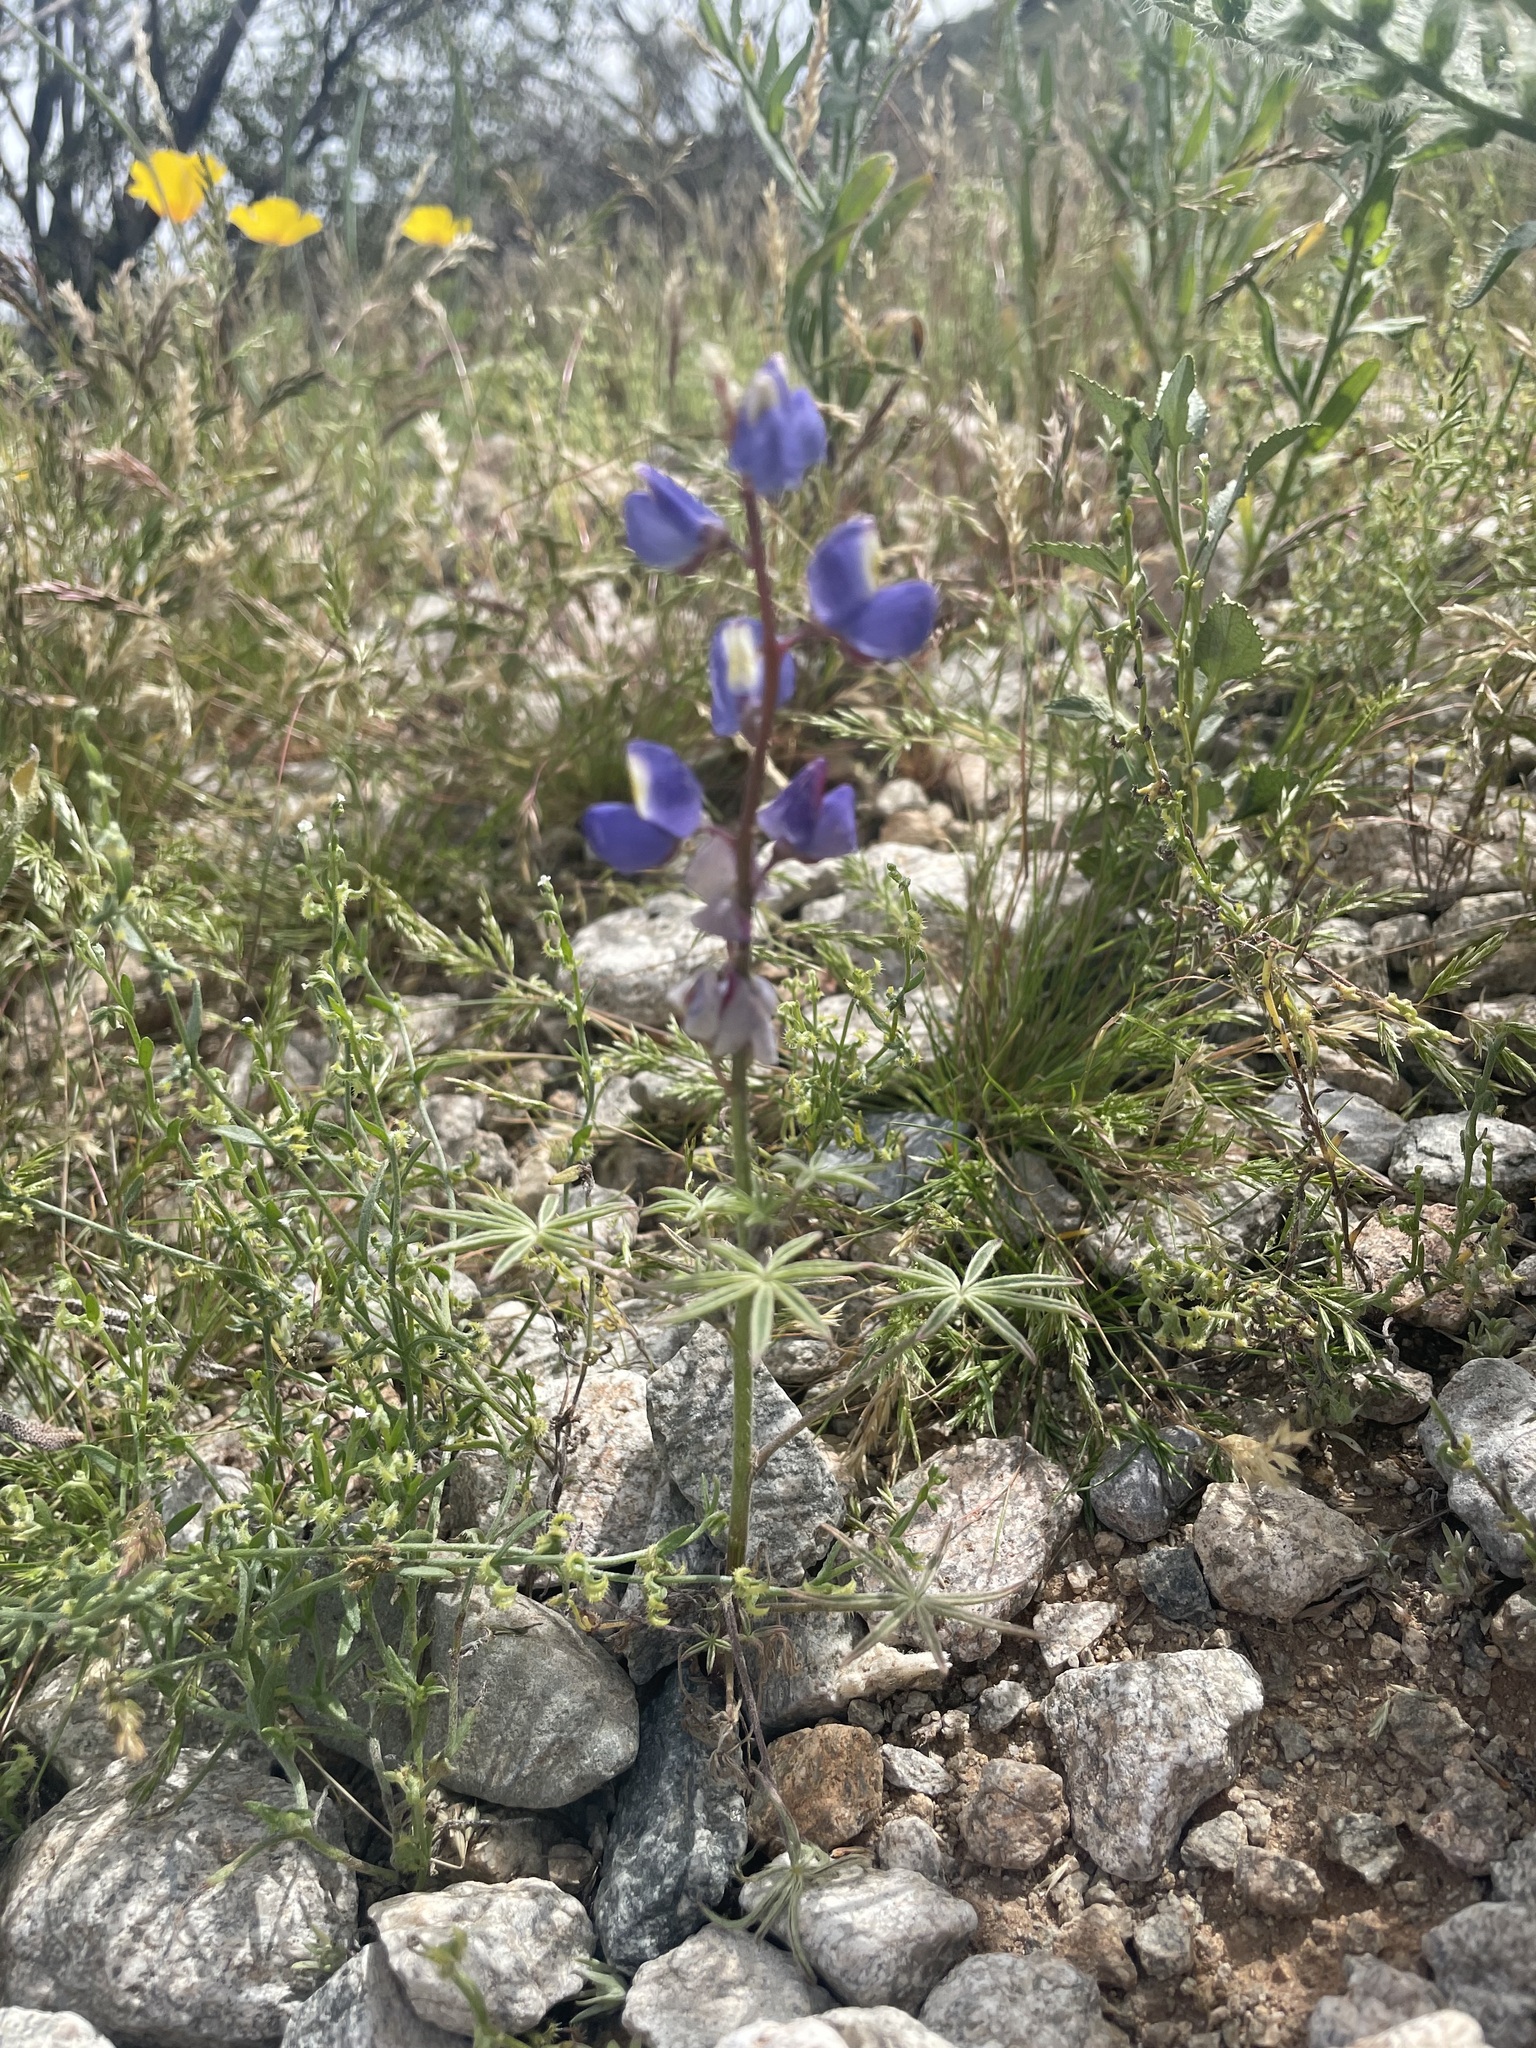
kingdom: Plantae
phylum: Tracheophyta
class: Magnoliopsida
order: Fabales
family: Fabaceae
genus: Lupinus
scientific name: Lupinus sparsiflorus
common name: Coulter's lupine
